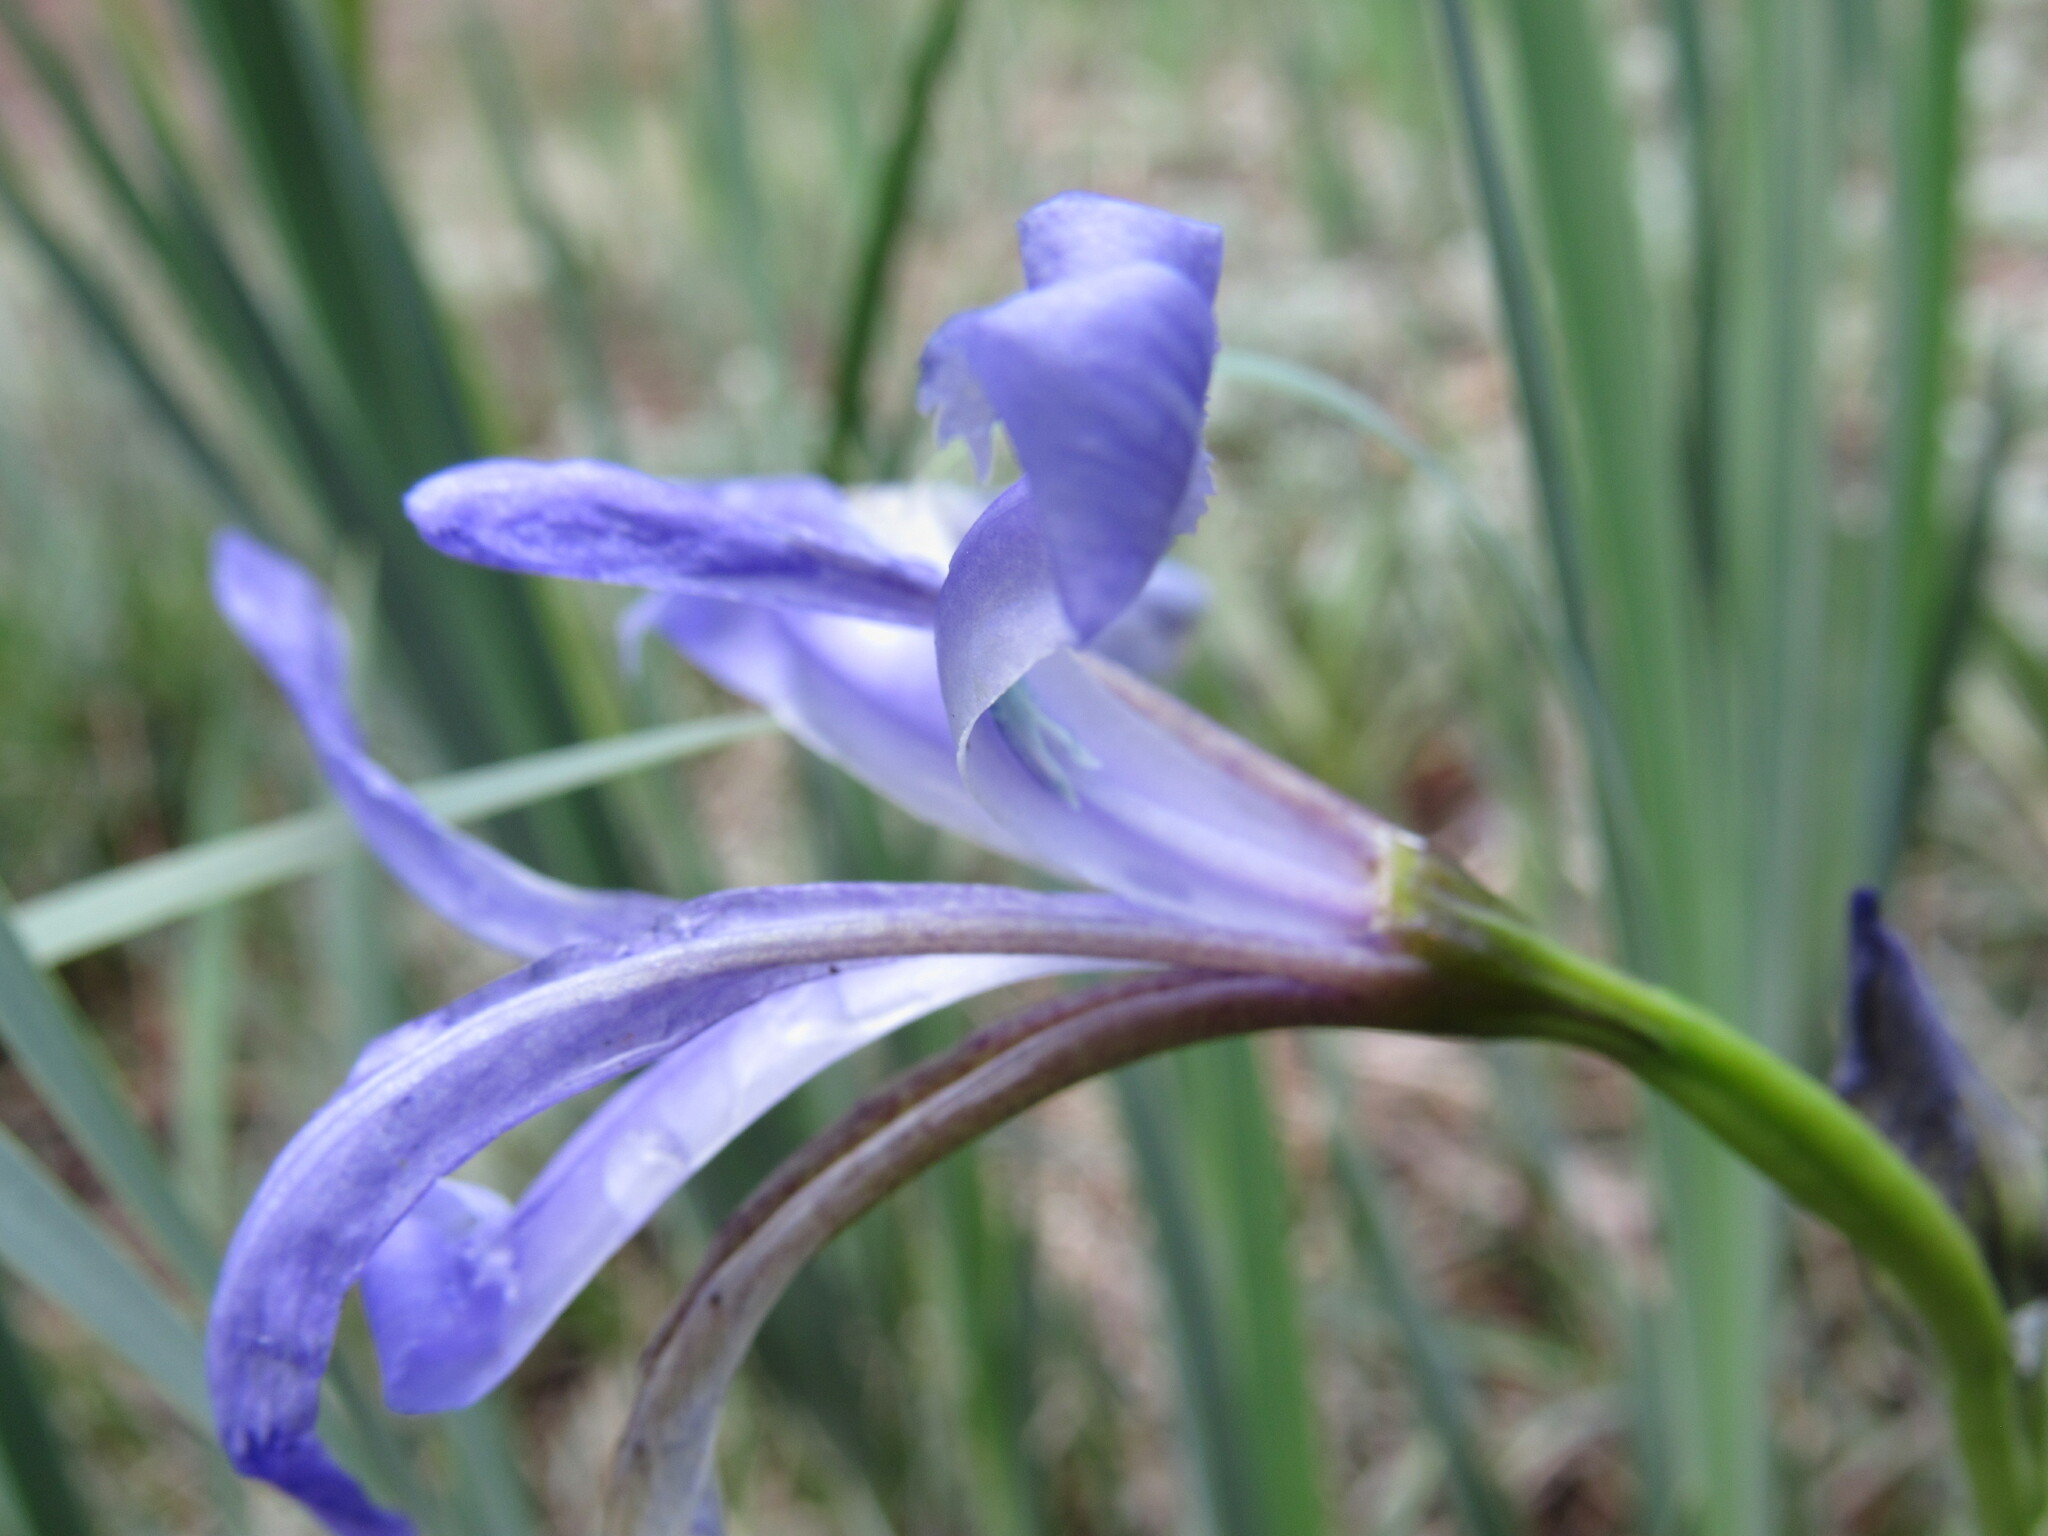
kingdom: Plantae
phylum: Tracheophyta
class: Liliopsida
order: Asparagales
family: Iridaceae
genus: Iris
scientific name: Iris missouriensis
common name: Rocky mountain iris
